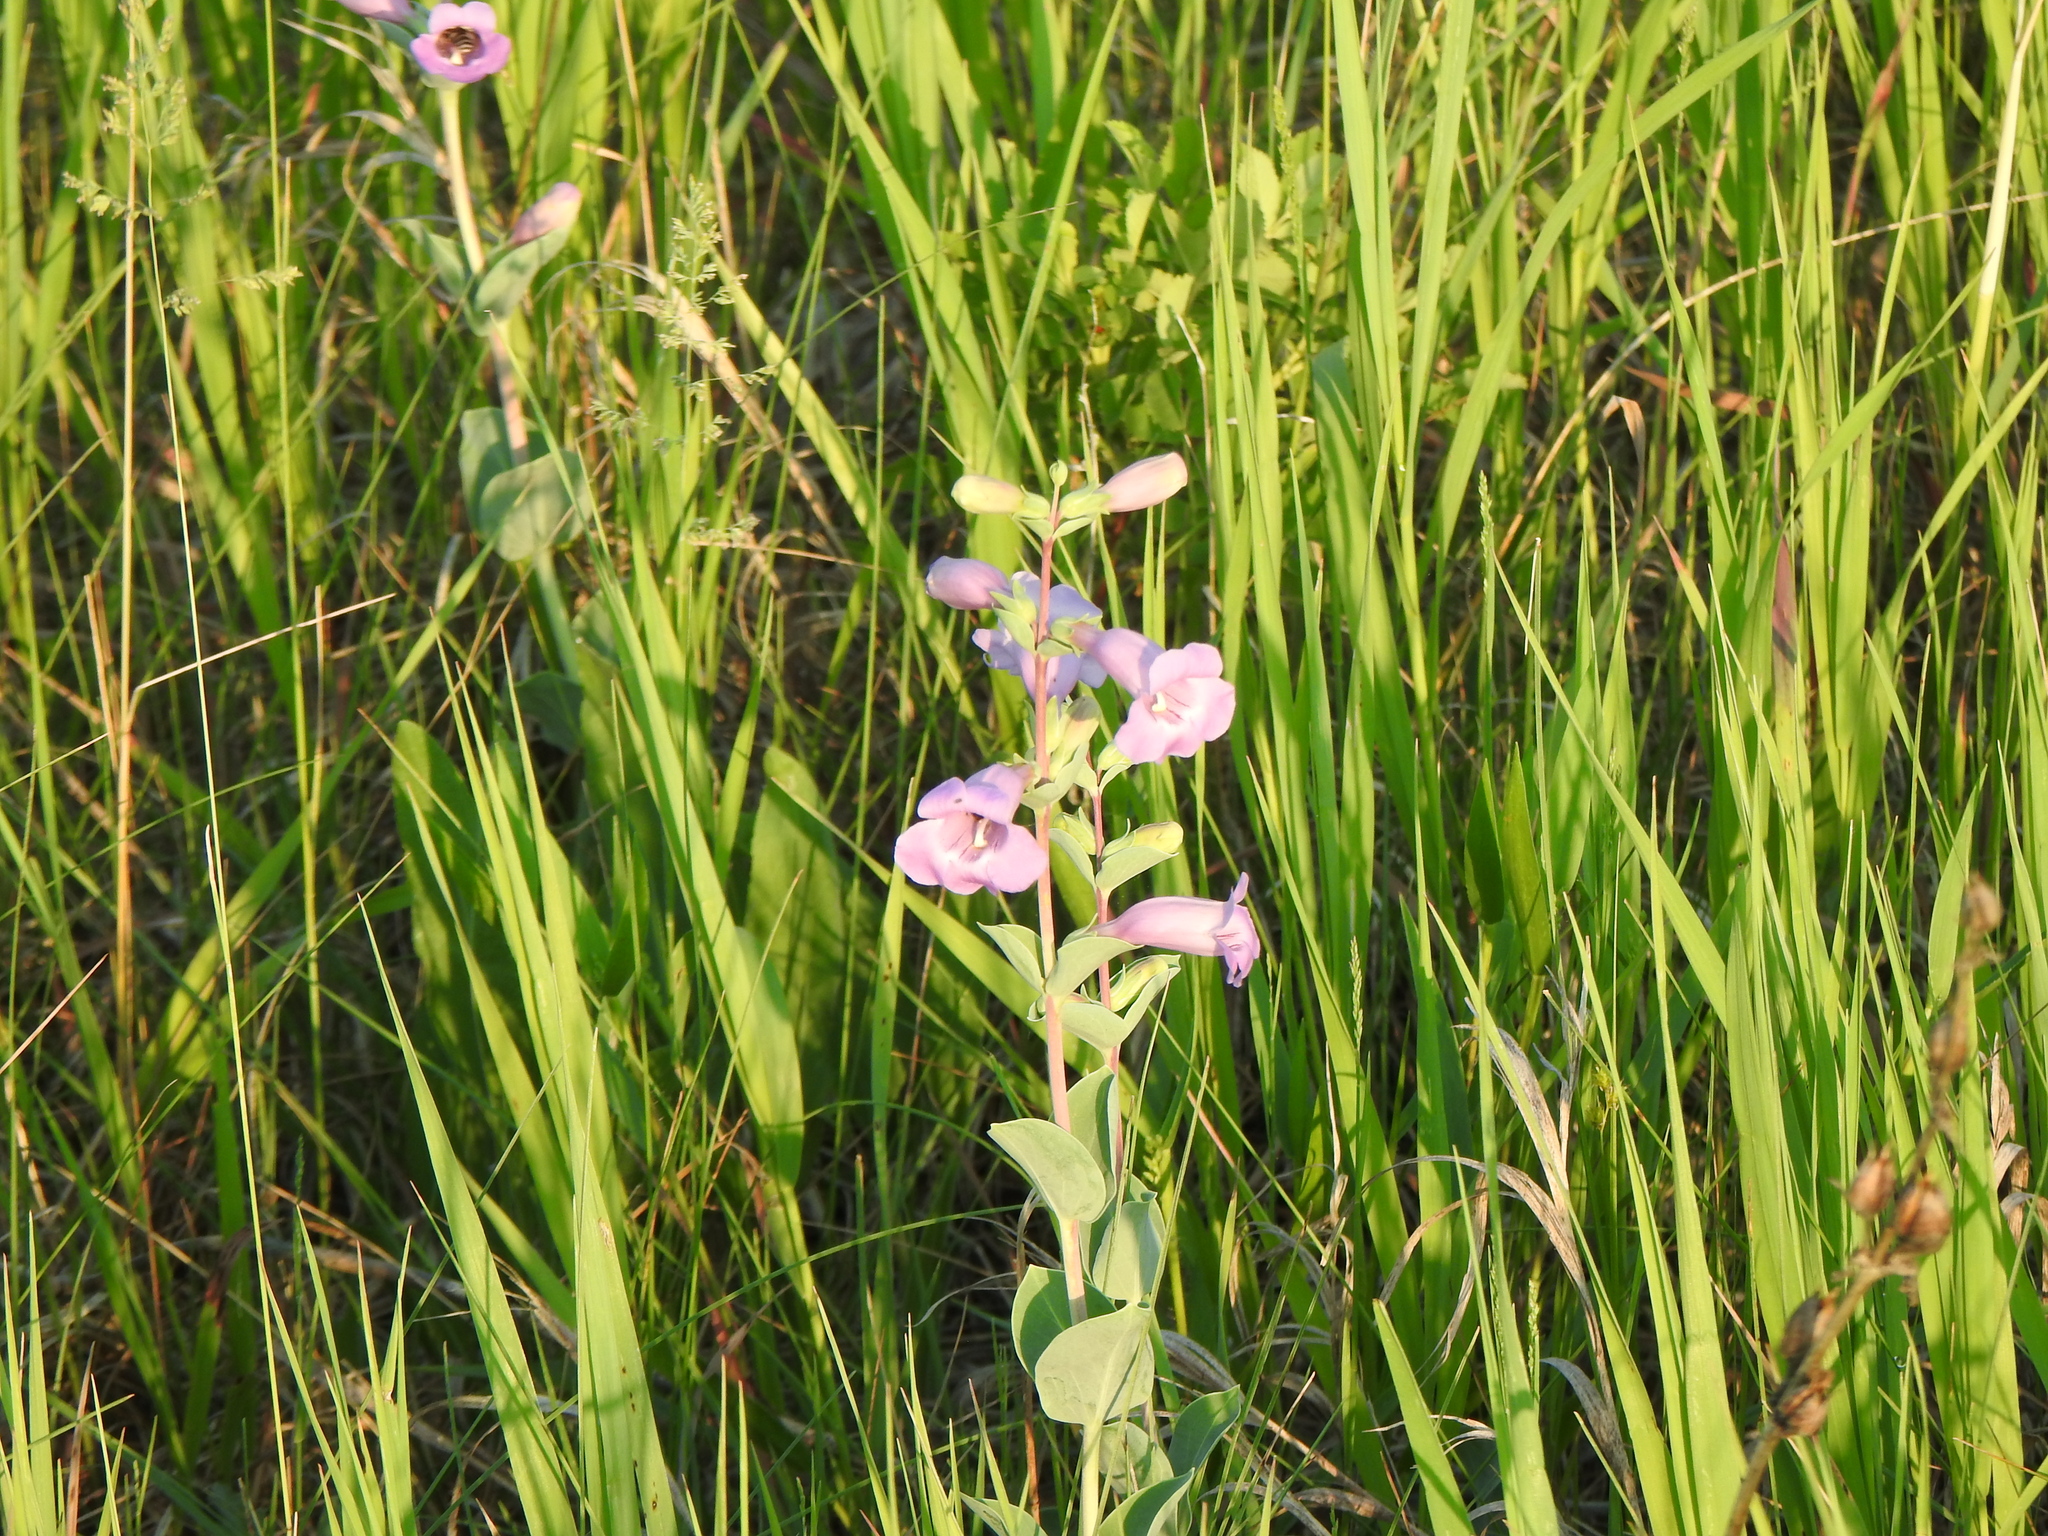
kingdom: Plantae
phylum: Tracheophyta
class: Magnoliopsida
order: Lamiales
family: Plantaginaceae
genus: Penstemon
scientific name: Penstemon
